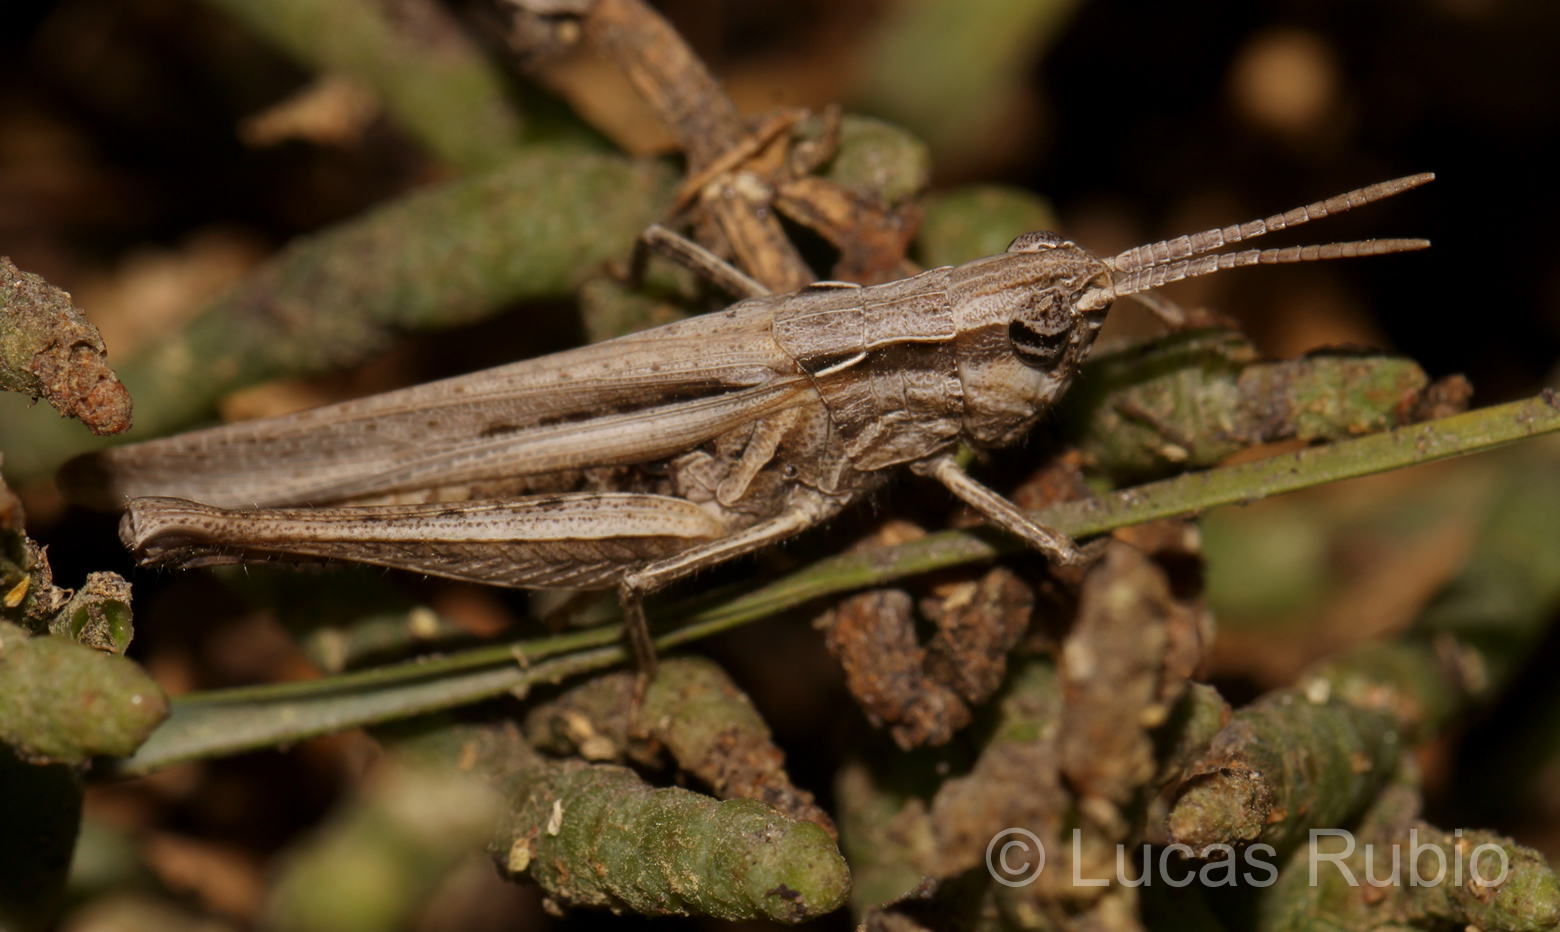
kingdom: Animalia
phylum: Arthropoda
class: Insecta
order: Orthoptera
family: Acrididae
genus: Covasacris
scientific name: Covasacris pallidinota
